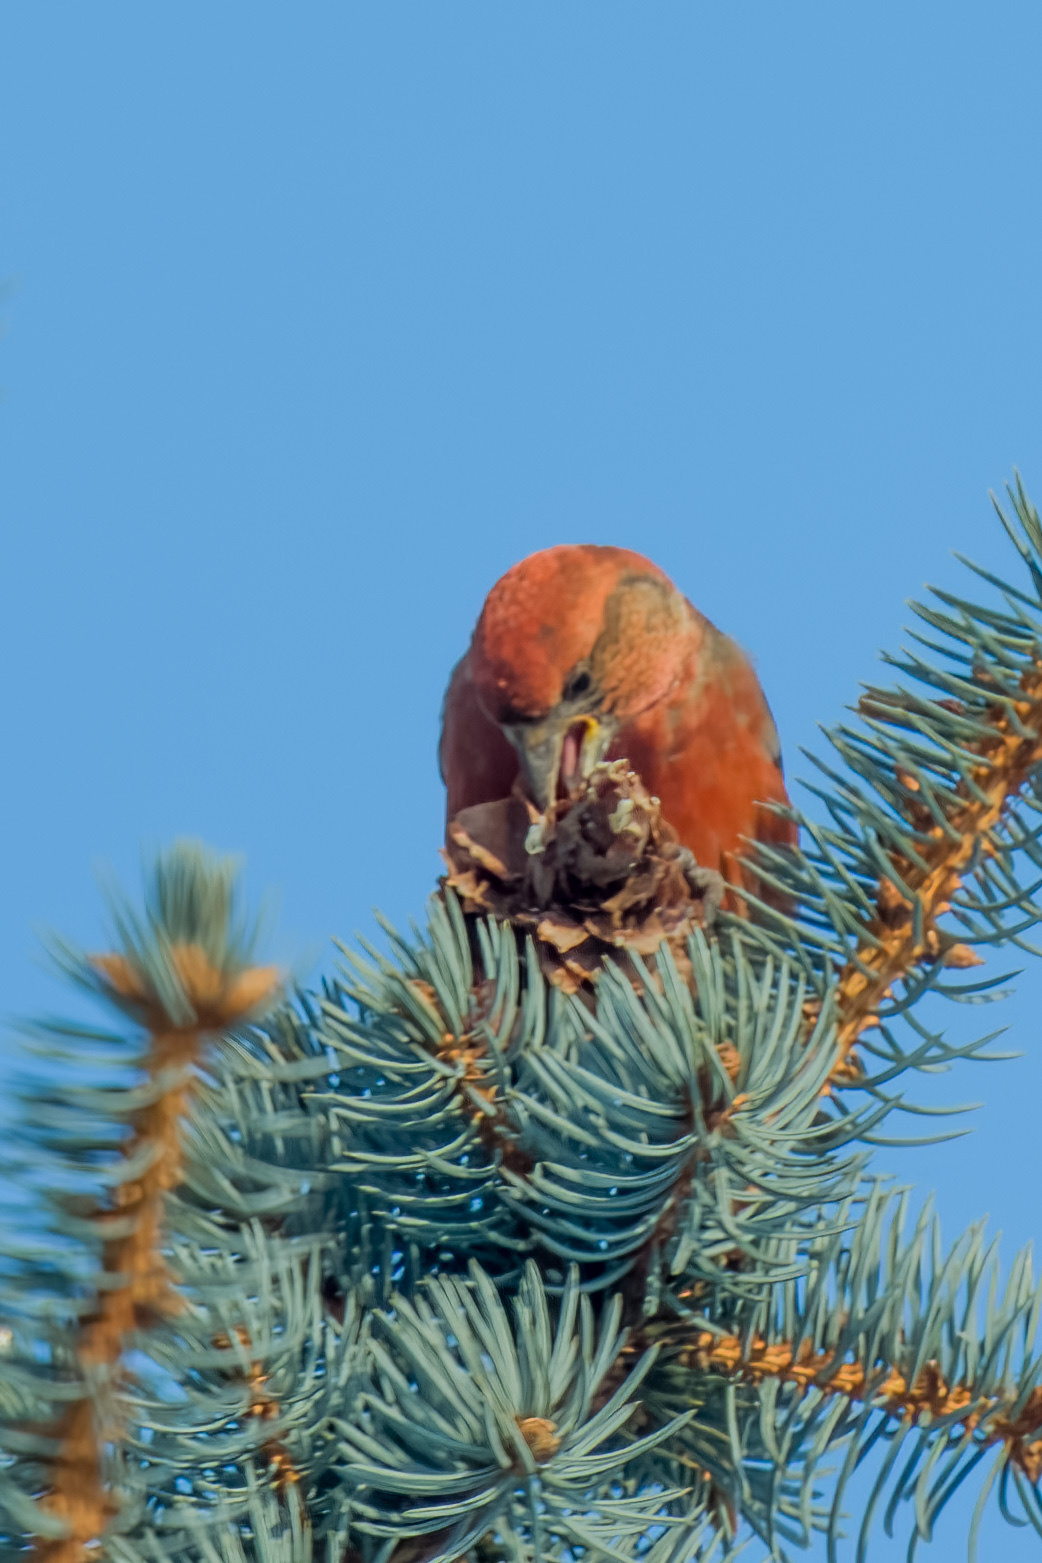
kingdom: Animalia
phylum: Chordata
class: Aves
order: Passeriformes
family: Fringillidae
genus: Loxia
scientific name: Loxia curvirostra
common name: Red crossbill
